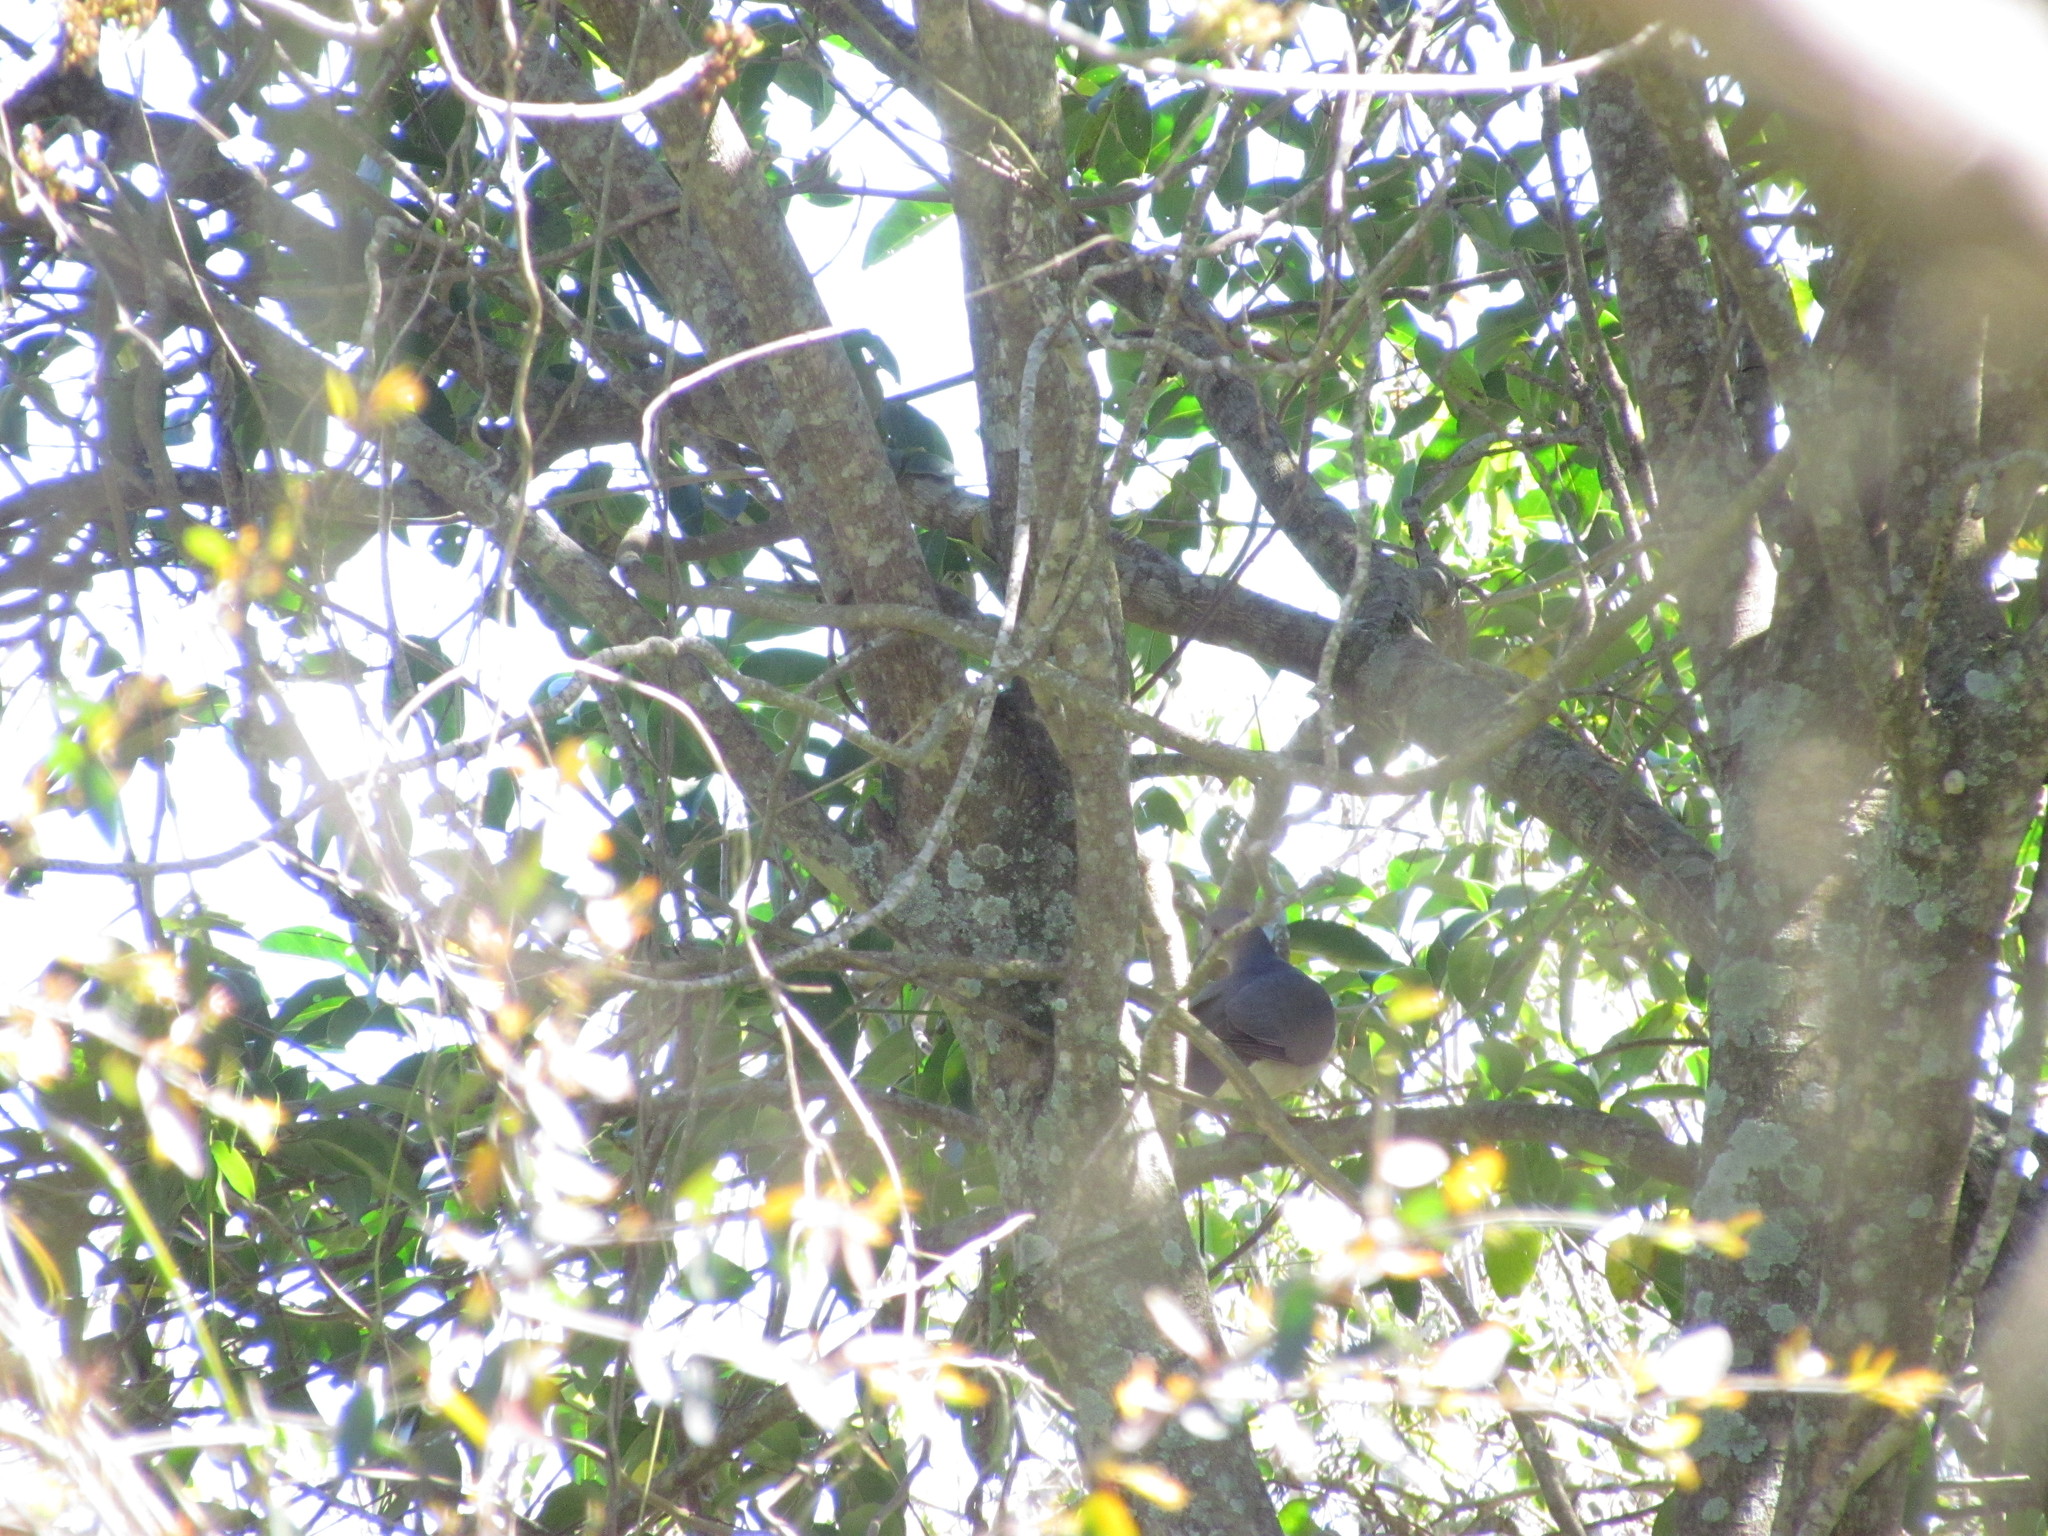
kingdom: Animalia
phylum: Chordata
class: Aves
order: Columbiformes
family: Columbidae
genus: Leptotila
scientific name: Leptotila verreauxi
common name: White-tipped dove
